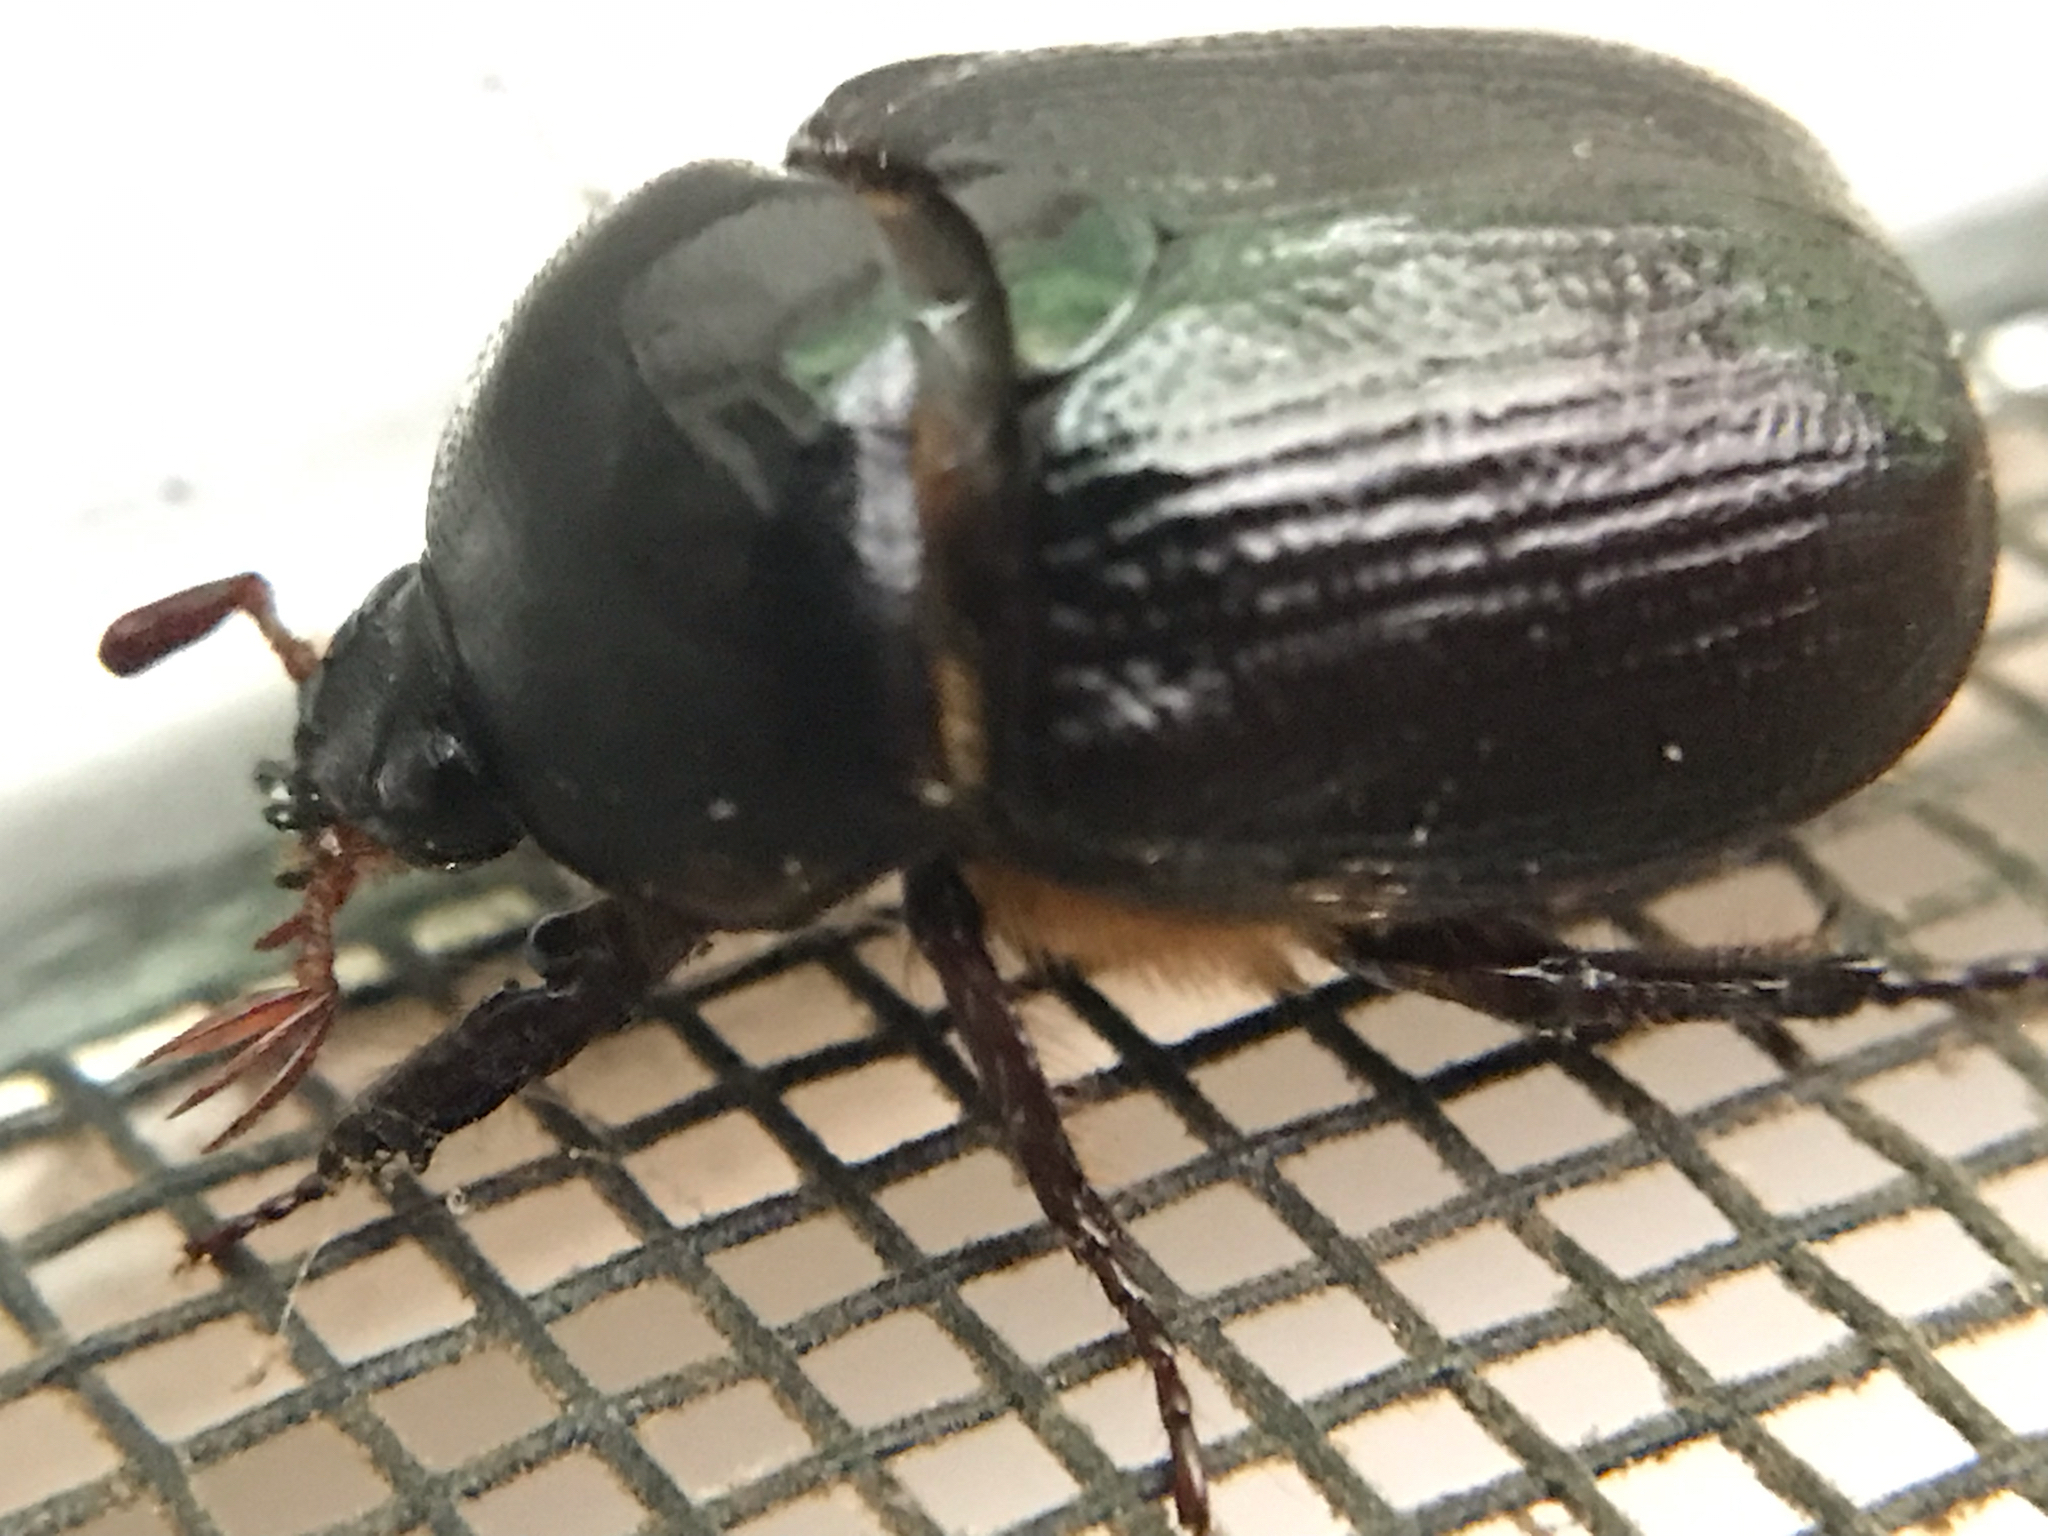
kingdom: Animalia
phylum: Arthropoda
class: Insecta
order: Coleoptera
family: Scarabaeidae
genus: Parastasia
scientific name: Parastasia brevipes
